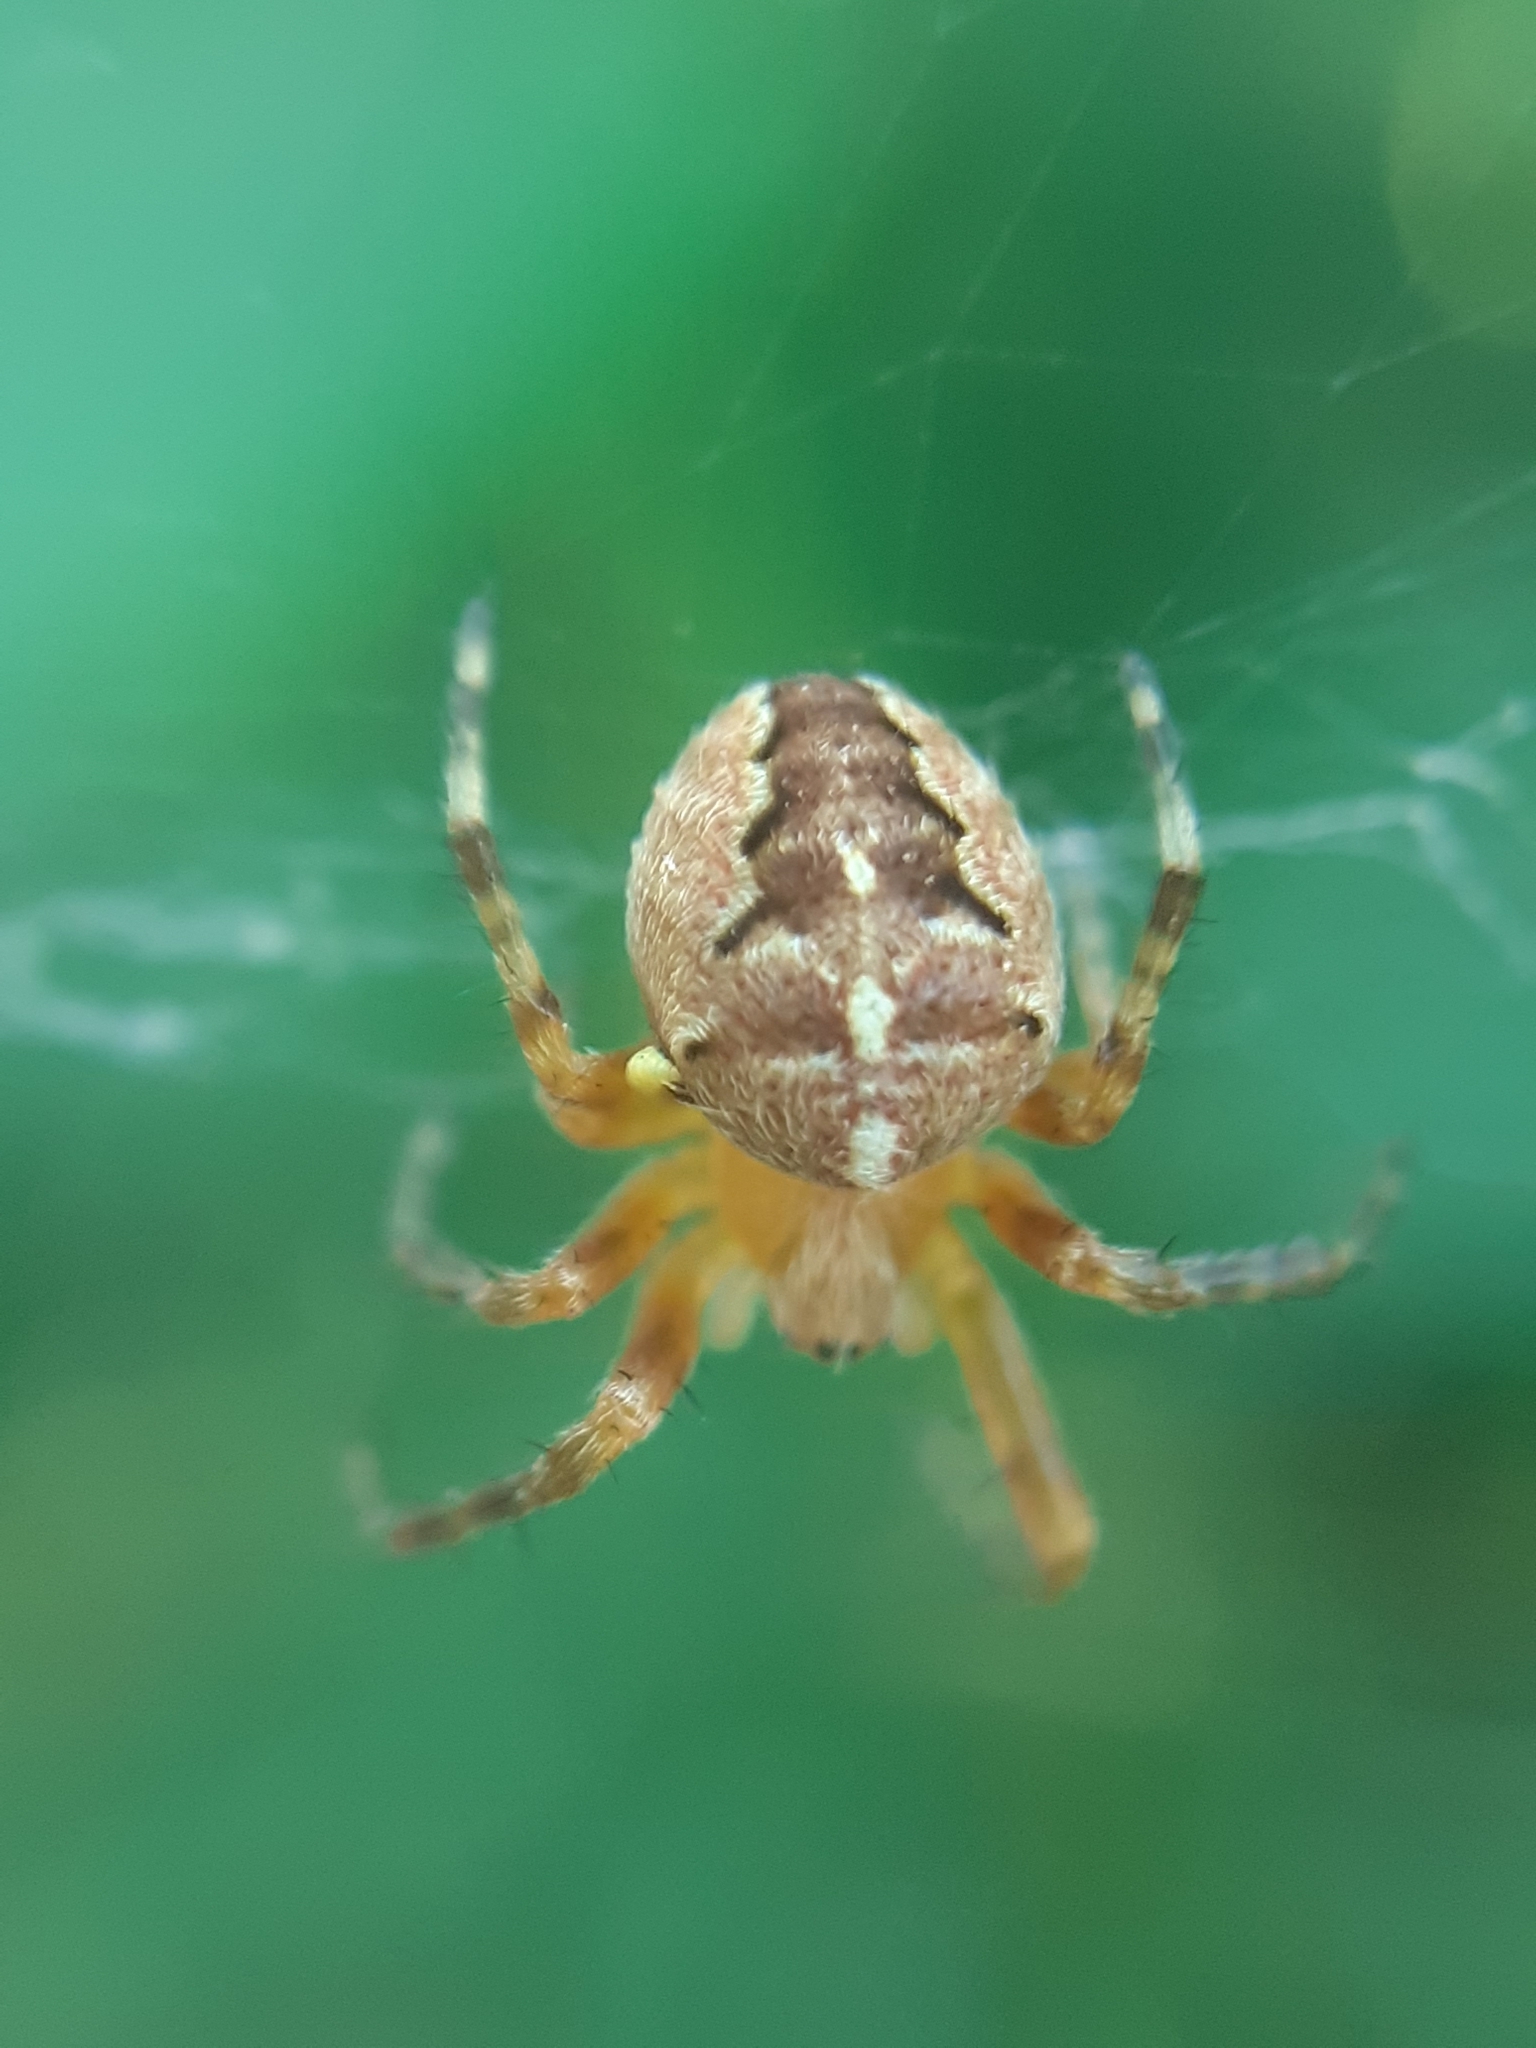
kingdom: Animalia
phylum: Arthropoda
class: Arachnida
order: Araneae
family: Araneidae
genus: Araneus
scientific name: Araneus diadematus
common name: Cross orbweaver
